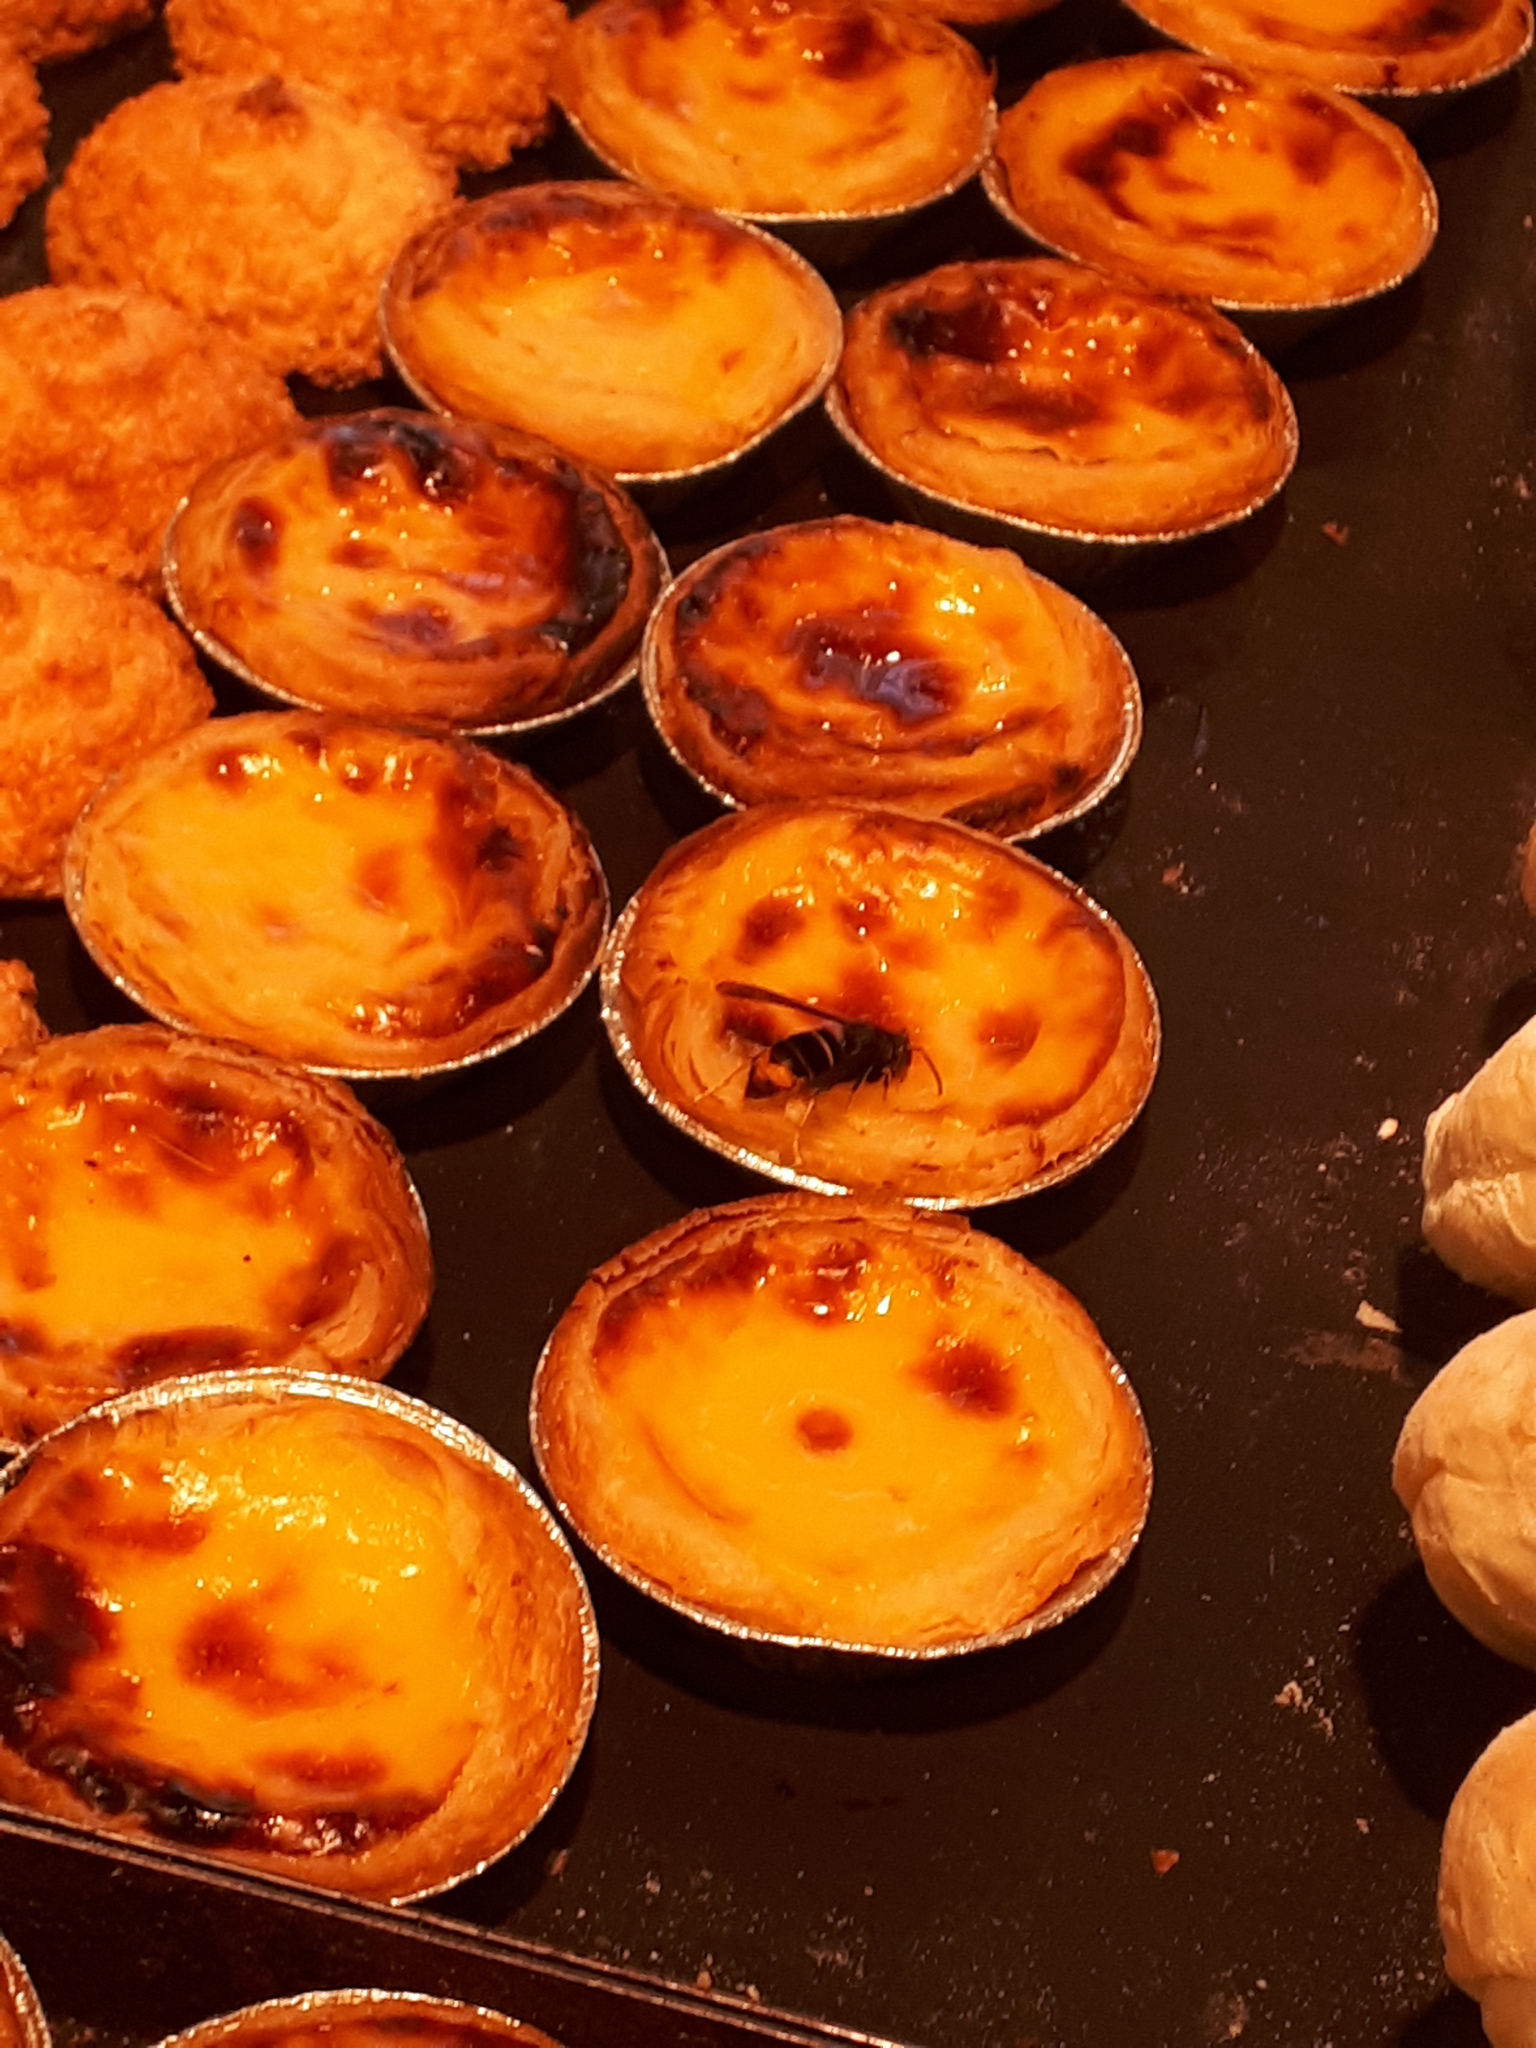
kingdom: Animalia
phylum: Arthropoda
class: Insecta
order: Hymenoptera
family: Vespidae
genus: Vespa
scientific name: Vespa velutina
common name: Asian hornet
